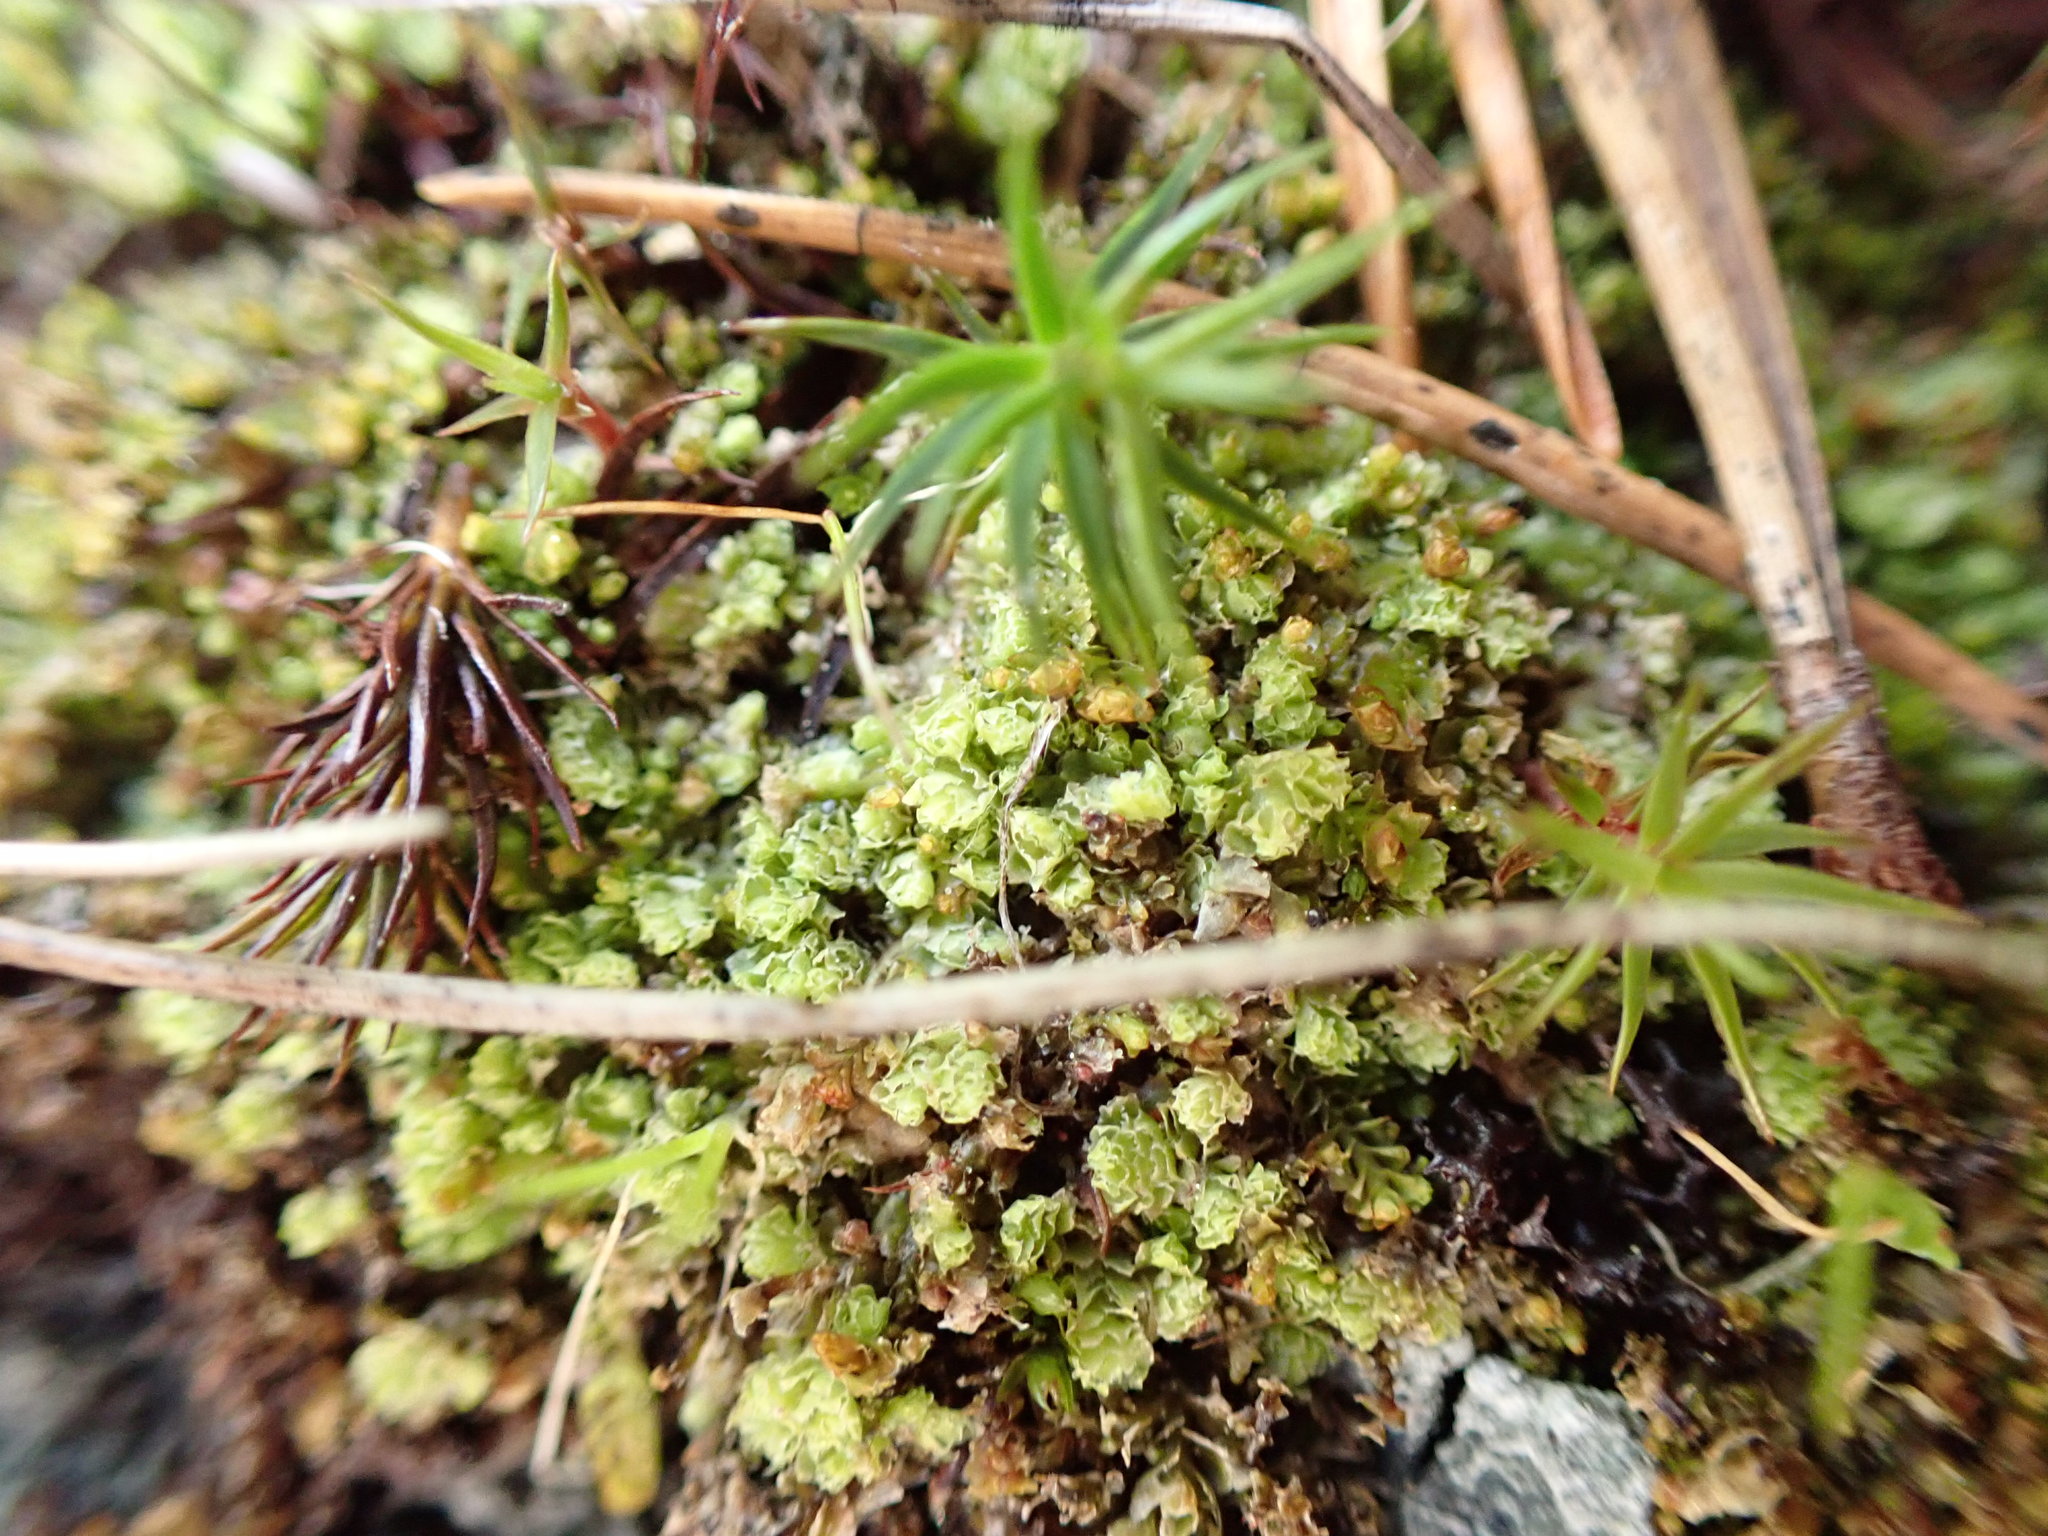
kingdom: Plantae
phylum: Marchantiophyta
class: Jungermanniopsida
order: Jungermanniales
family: Scapaniaceae
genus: Schistochilopsis
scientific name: Schistochilopsis incisa
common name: Jagged notchwort
